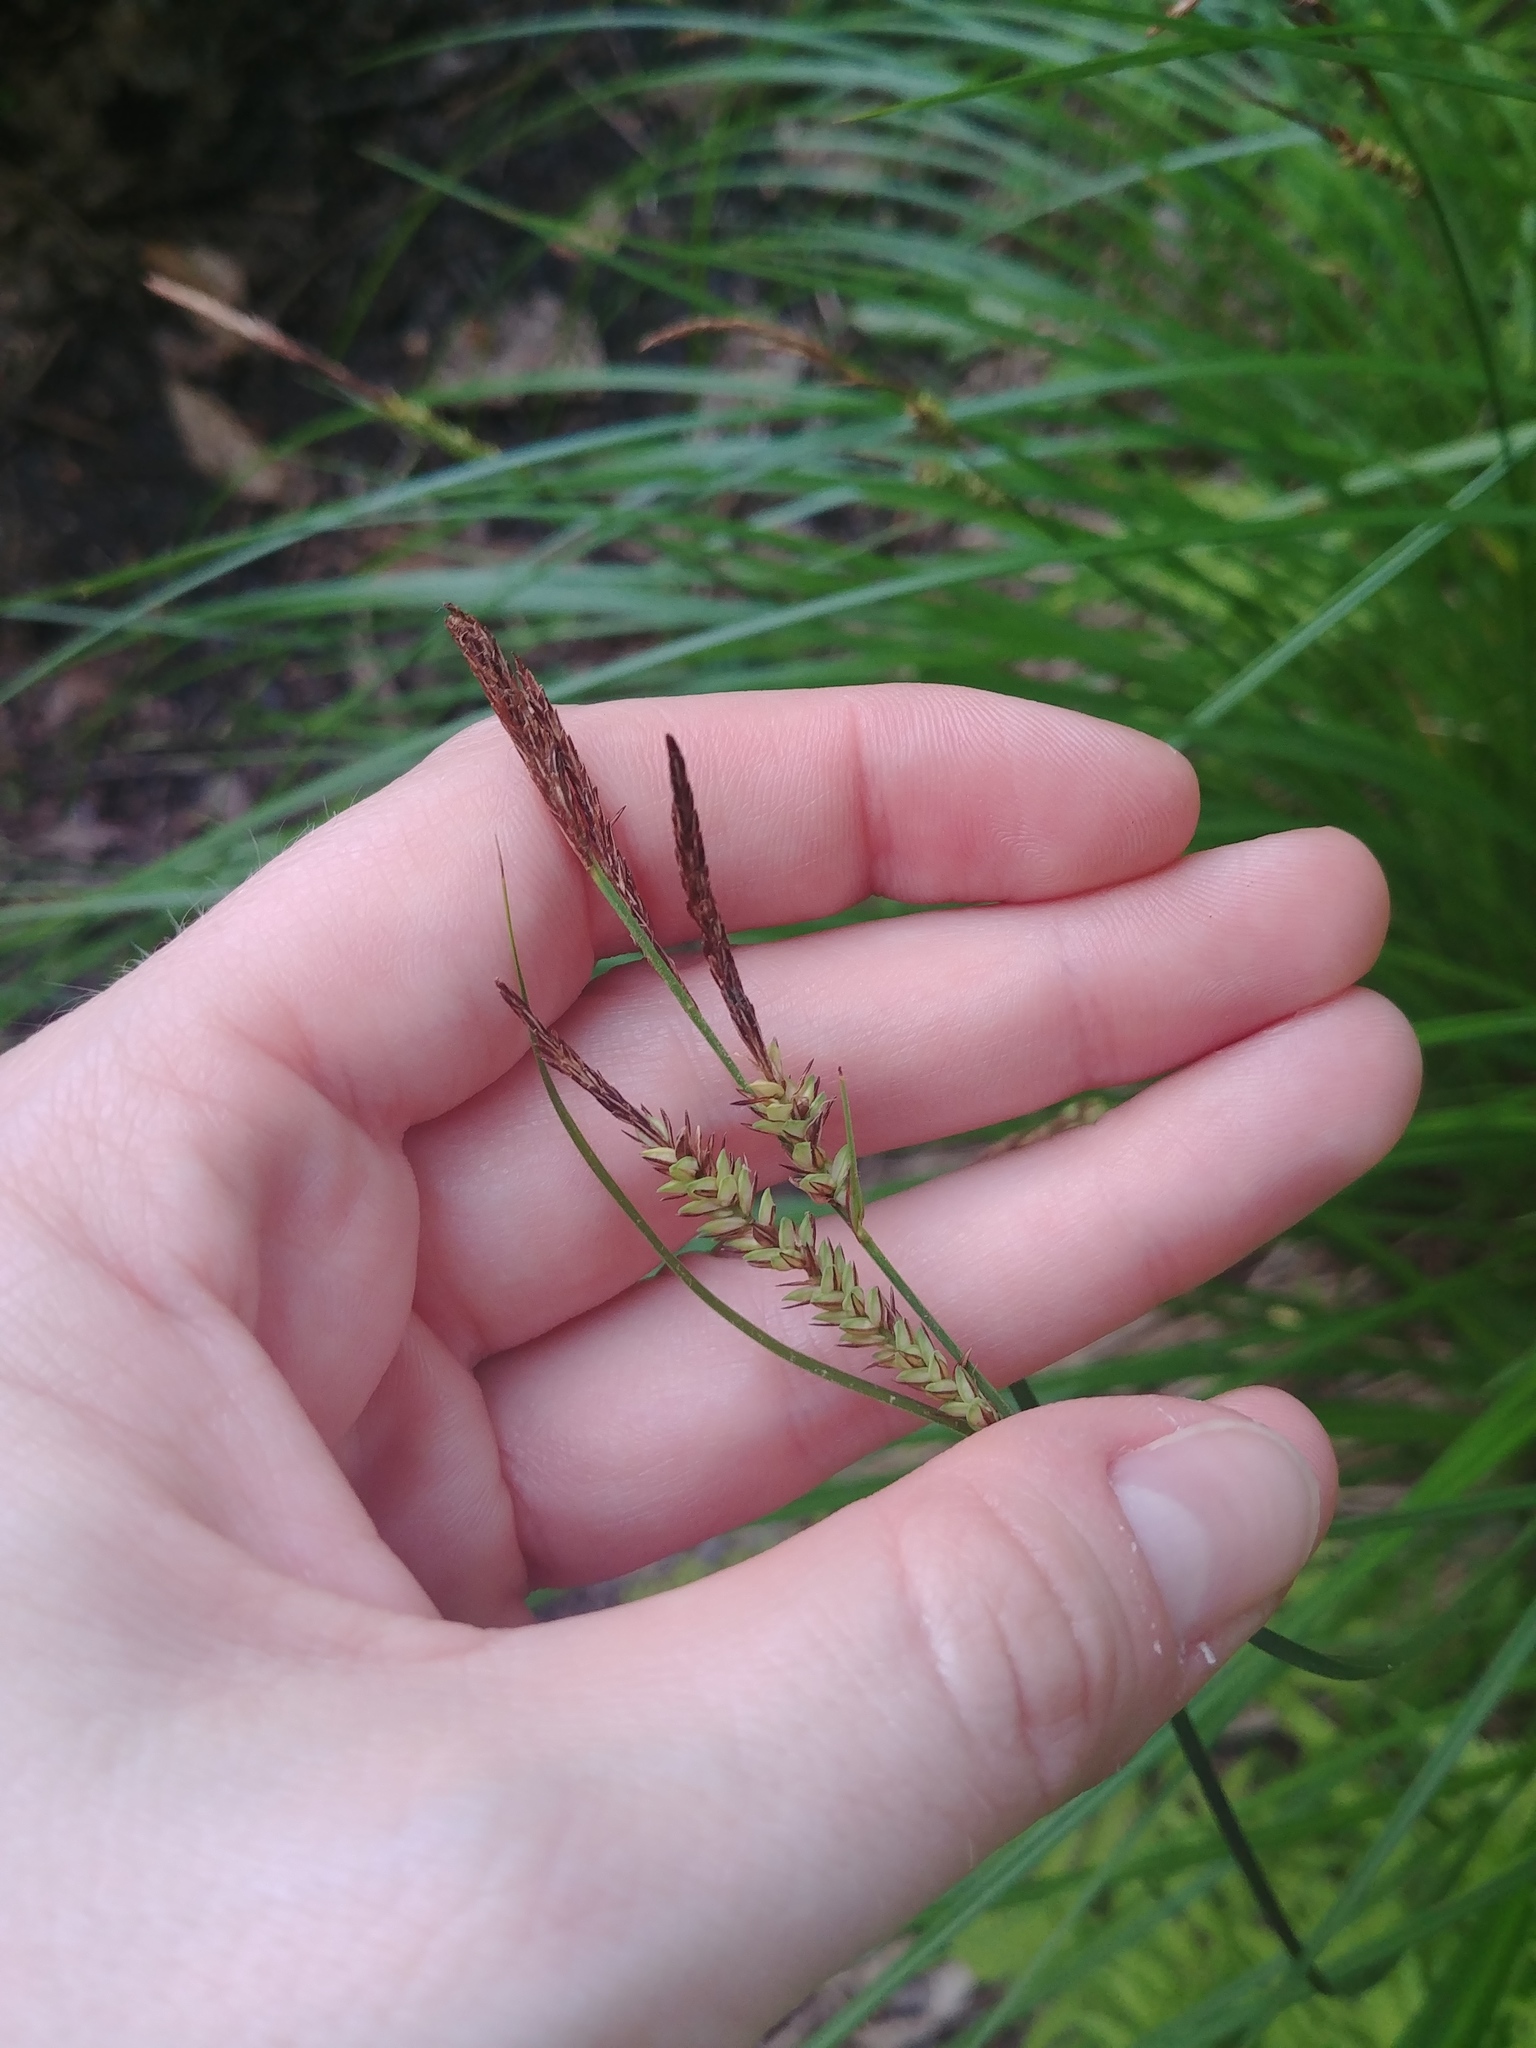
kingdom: Plantae
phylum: Tracheophyta
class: Liliopsida
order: Poales
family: Cyperaceae
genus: Carex
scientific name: Carex stricta
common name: Hummock sedge
